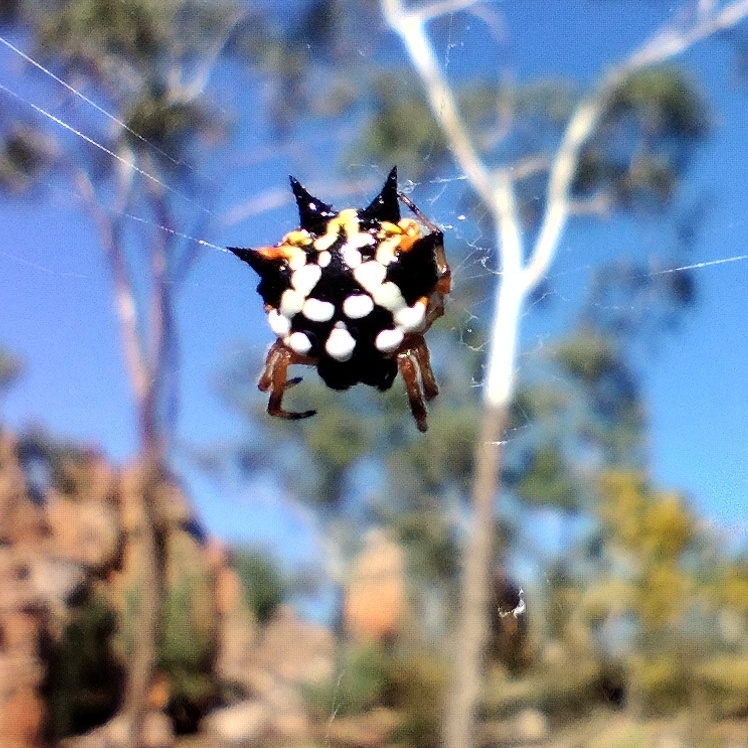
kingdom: Animalia
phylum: Arthropoda
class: Arachnida
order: Araneae
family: Araneidae
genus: Austracantha
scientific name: Austracantha minax
